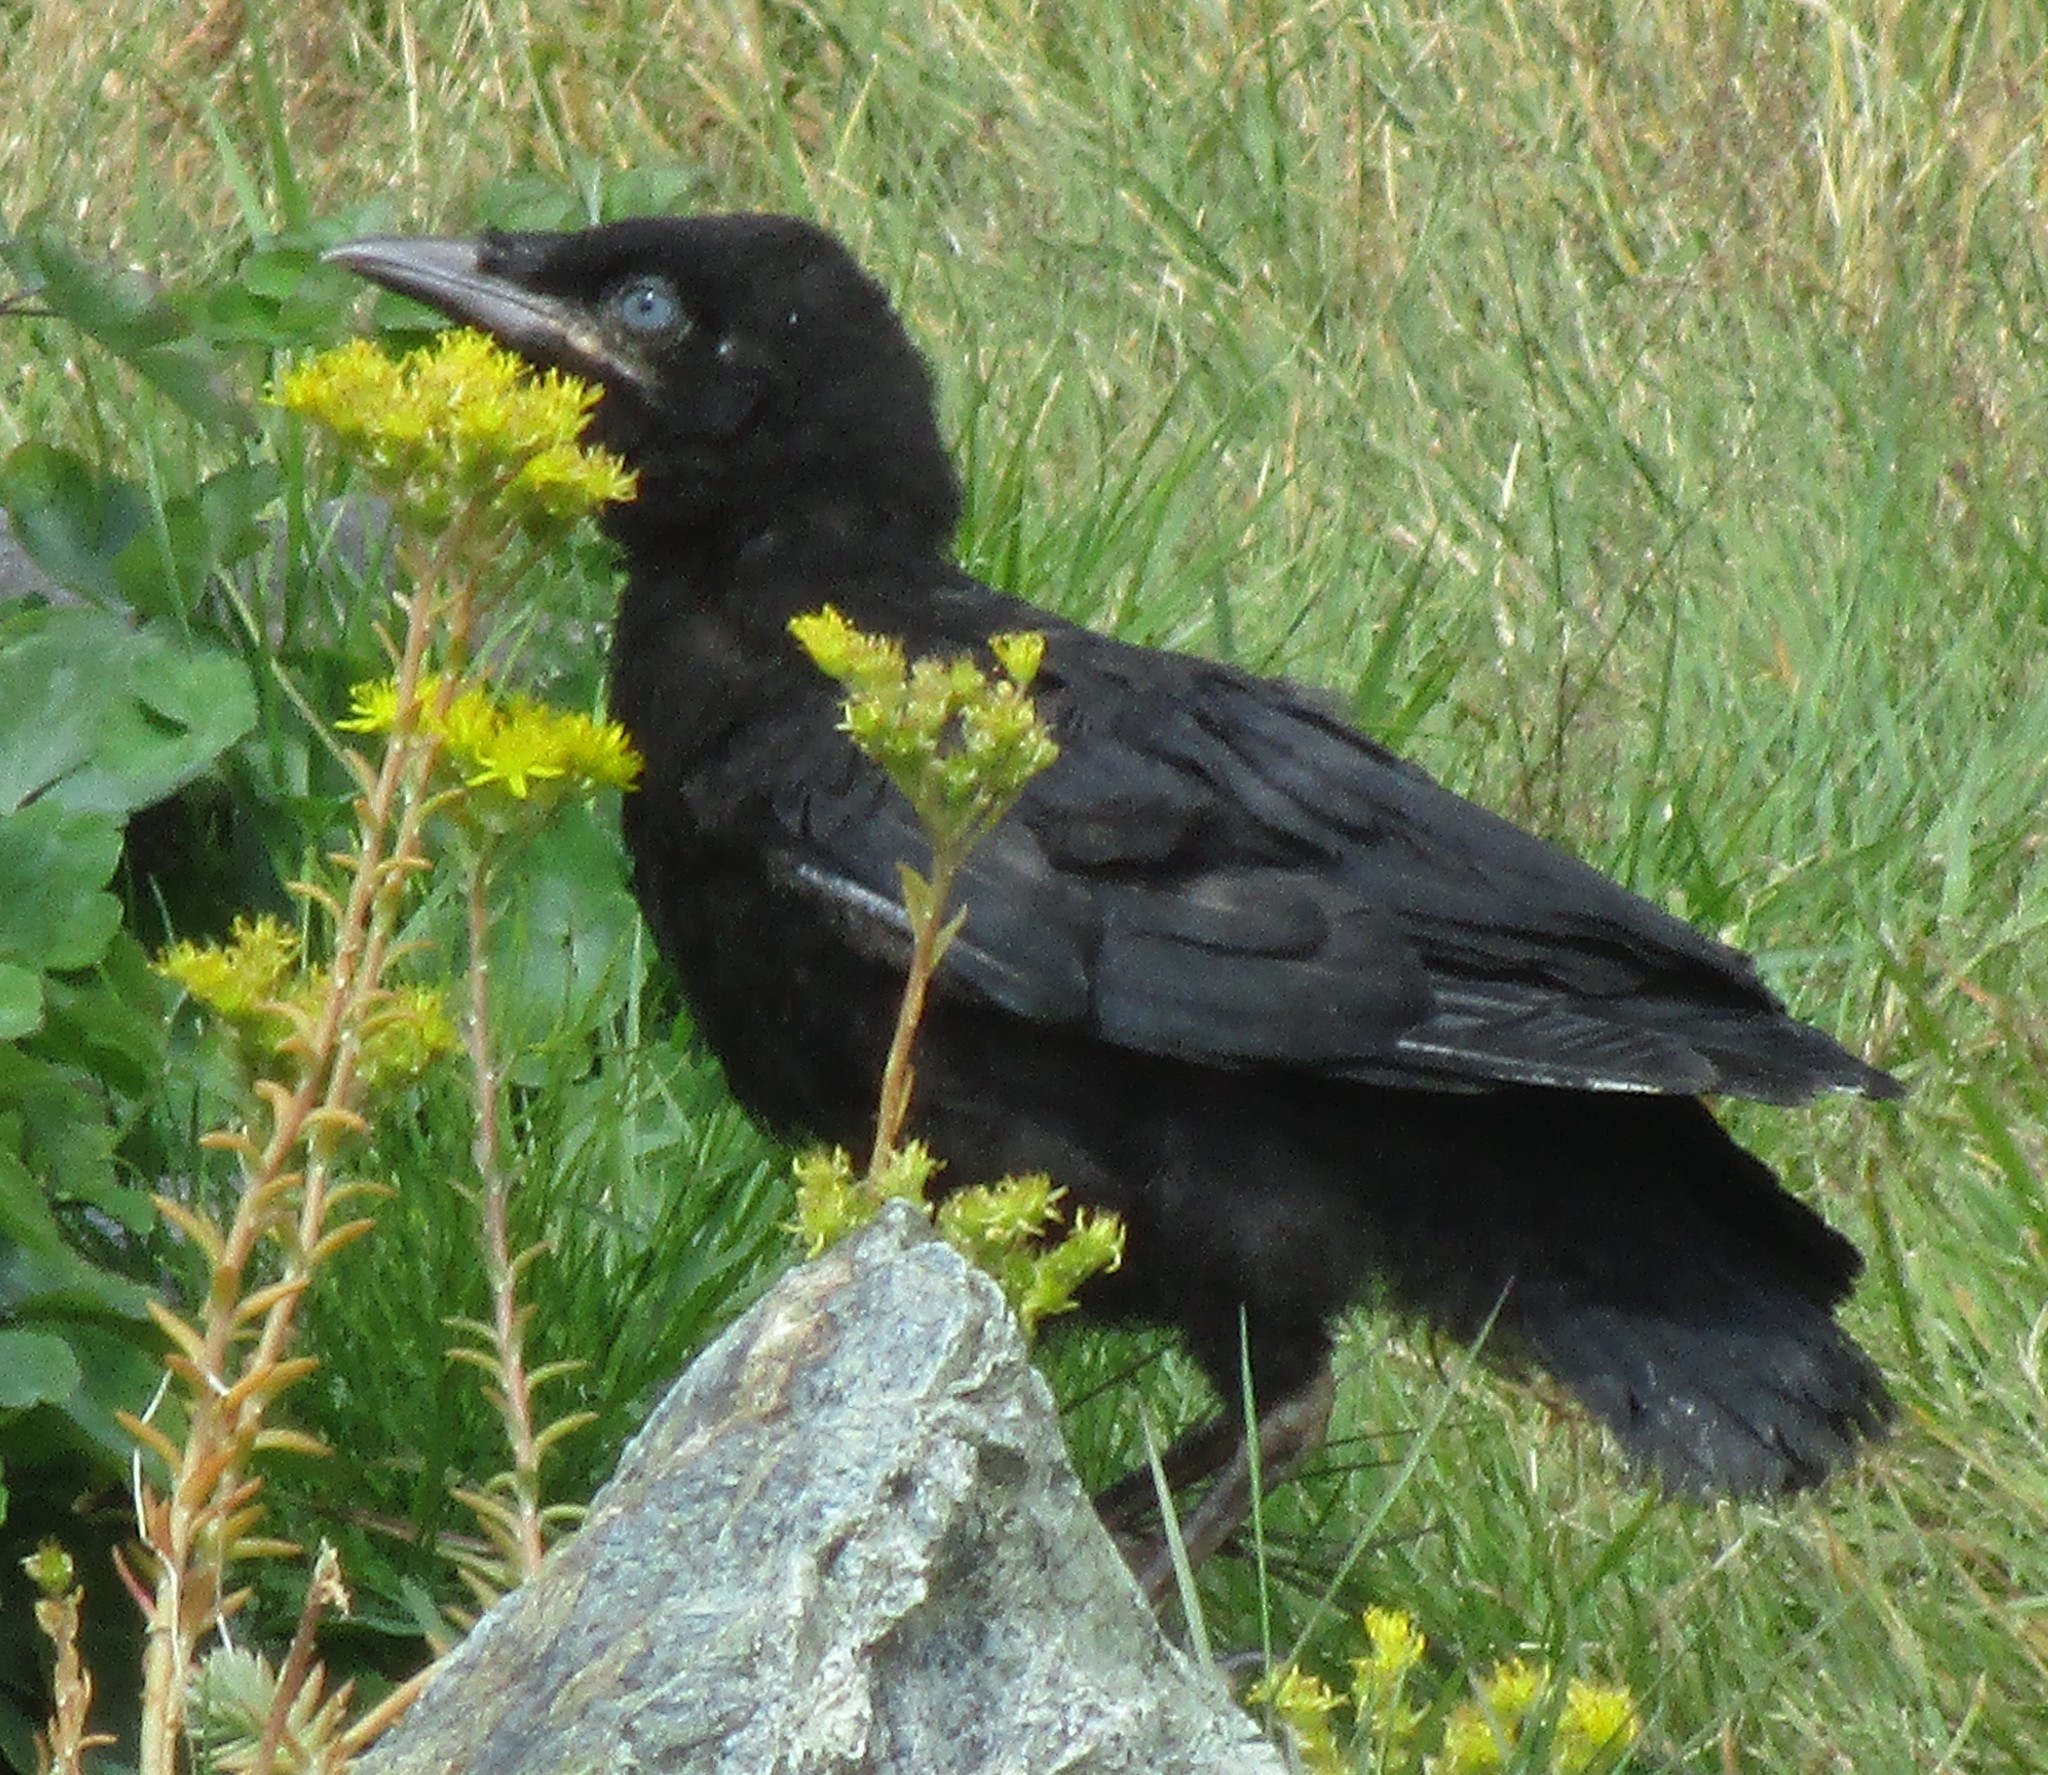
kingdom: Animalia
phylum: Chordata
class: Aves
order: Passeriformes
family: Corvidae
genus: Corvus
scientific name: Corvus brachyrhynchos
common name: American crow
